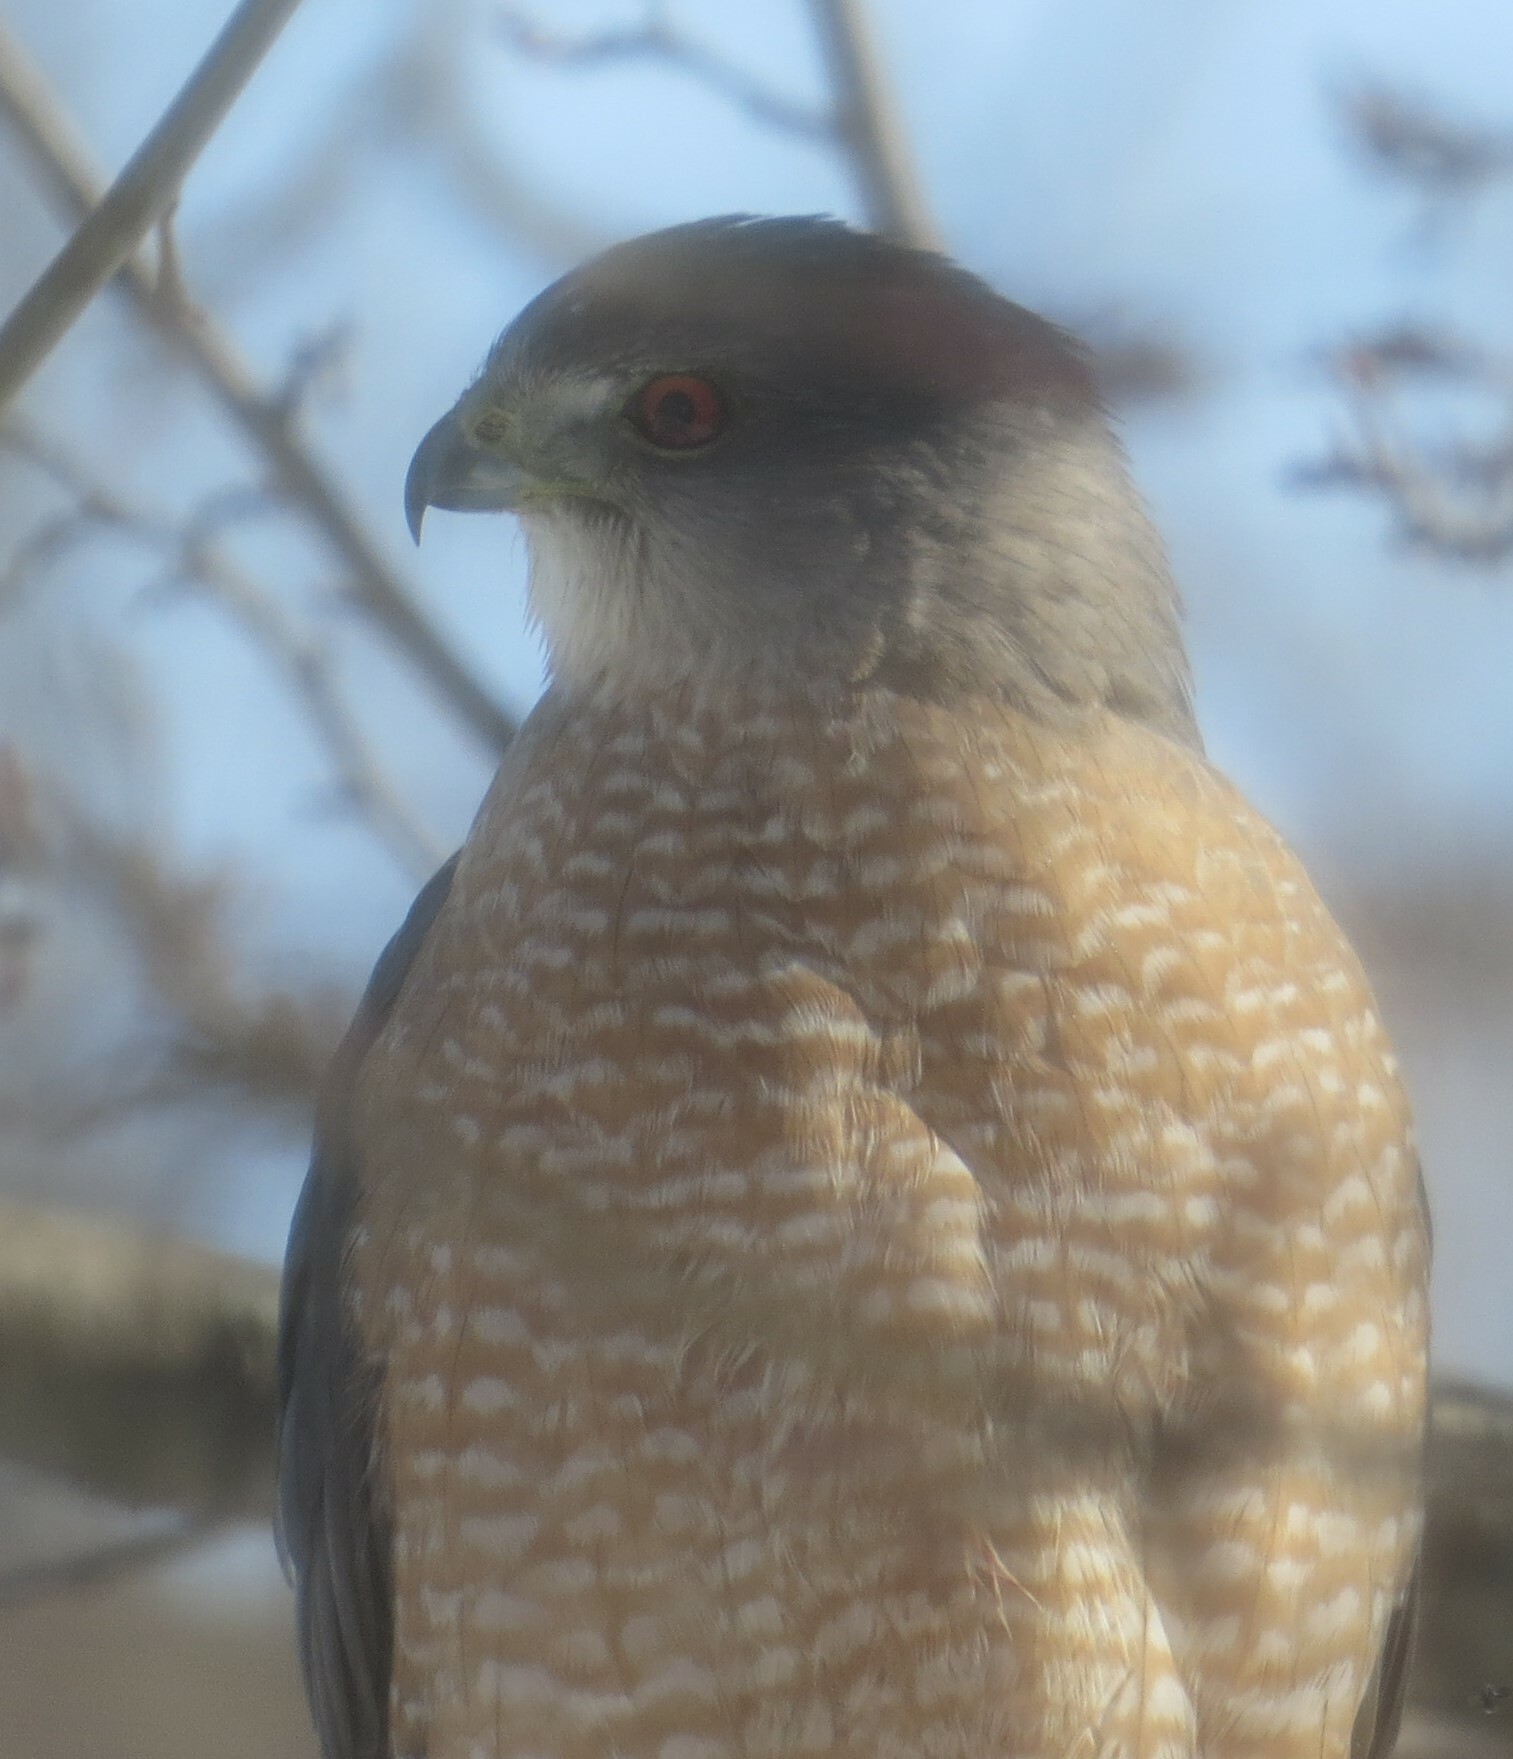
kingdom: Animalia
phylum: Chordata
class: Aves
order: Accipitriformes
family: Accipitridae
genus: Accipiter
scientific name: Accipiter cooperii
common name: Cooper's hawk
